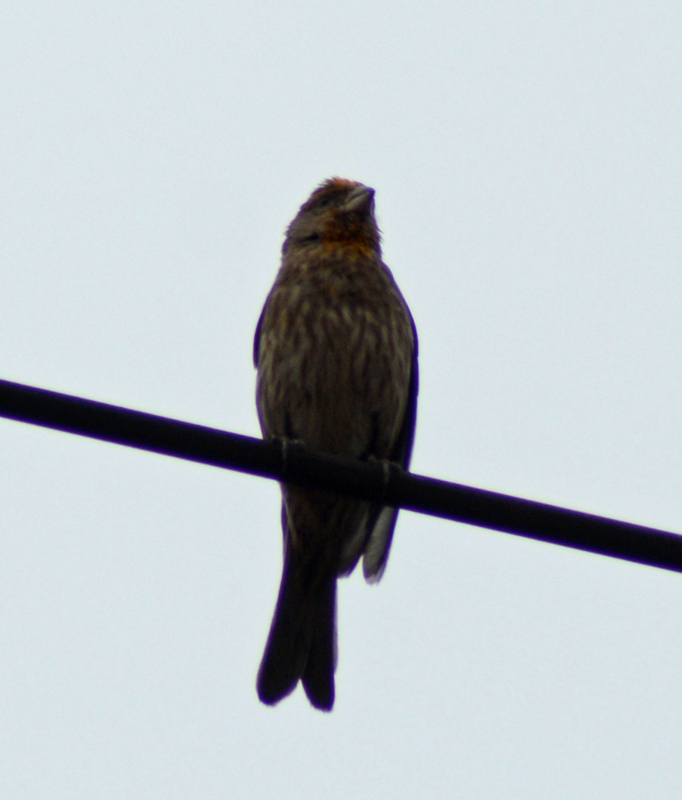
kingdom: Animalia
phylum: Chordata
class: Aves
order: Passeriformes
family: Fringillidae
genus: Haemorhous
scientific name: Haemorhous mexicanus
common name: House finch
